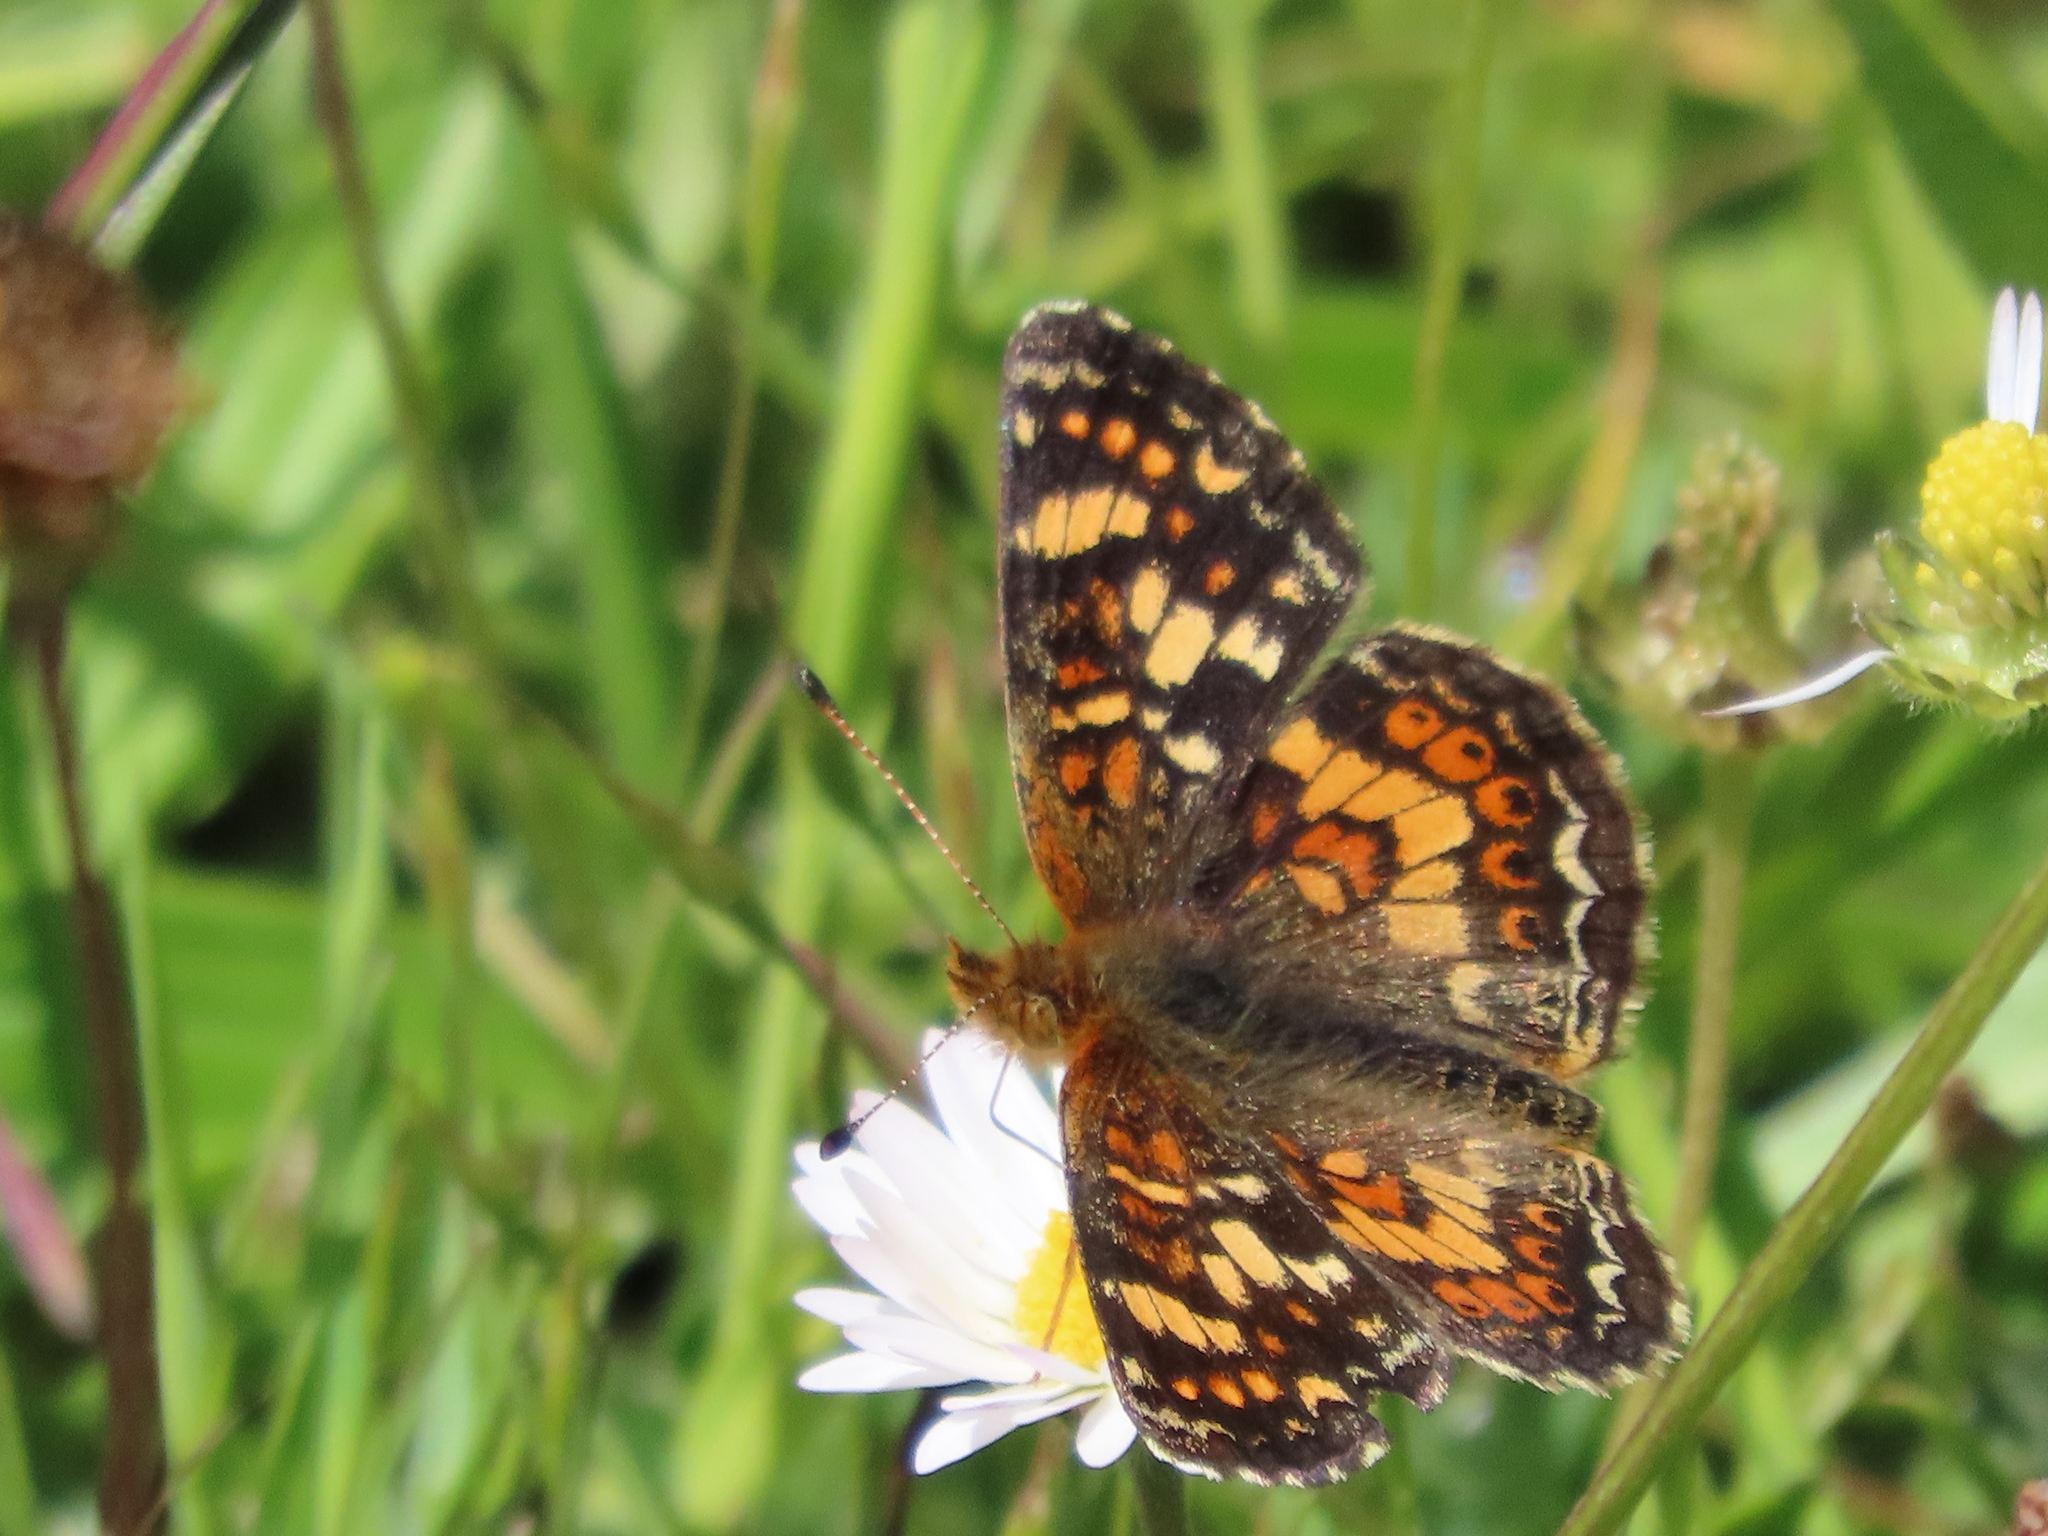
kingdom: Animalia
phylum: Arthropoda
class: Insecta
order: Lepidoptera
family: Nymphalidae
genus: Phyciodes
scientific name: Phyciodes tharos
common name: Pearl crescent
